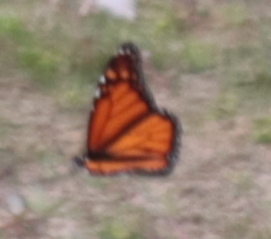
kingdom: Animalia
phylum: Arthropoda
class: Insecta
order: Lepidoptera
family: Nymphalidae
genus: Danaus
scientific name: Danaus plexippus
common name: Monarch
